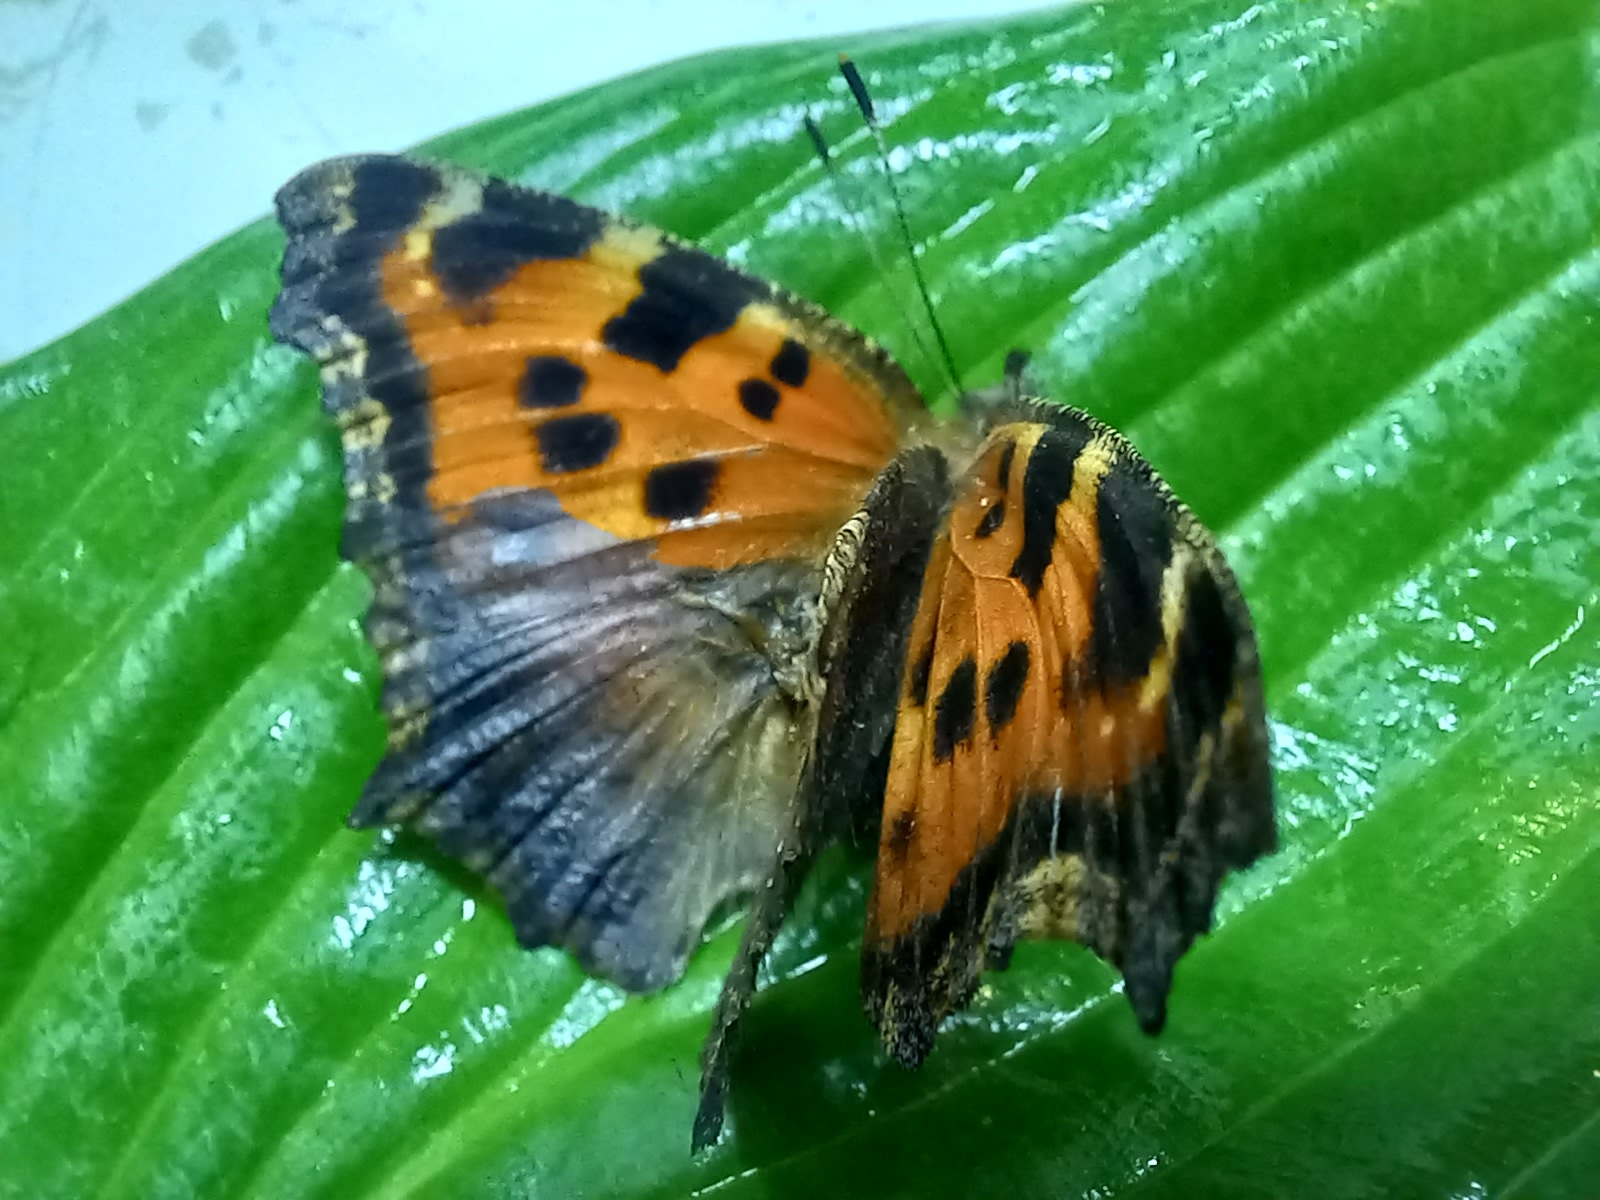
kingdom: Animalia
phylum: Arthropoda
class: Insecta
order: Lepidoptera
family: Nymphalidae
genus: Nymphalis
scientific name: Nymphalis xanthomelas
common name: Scarce tortoiseshell
